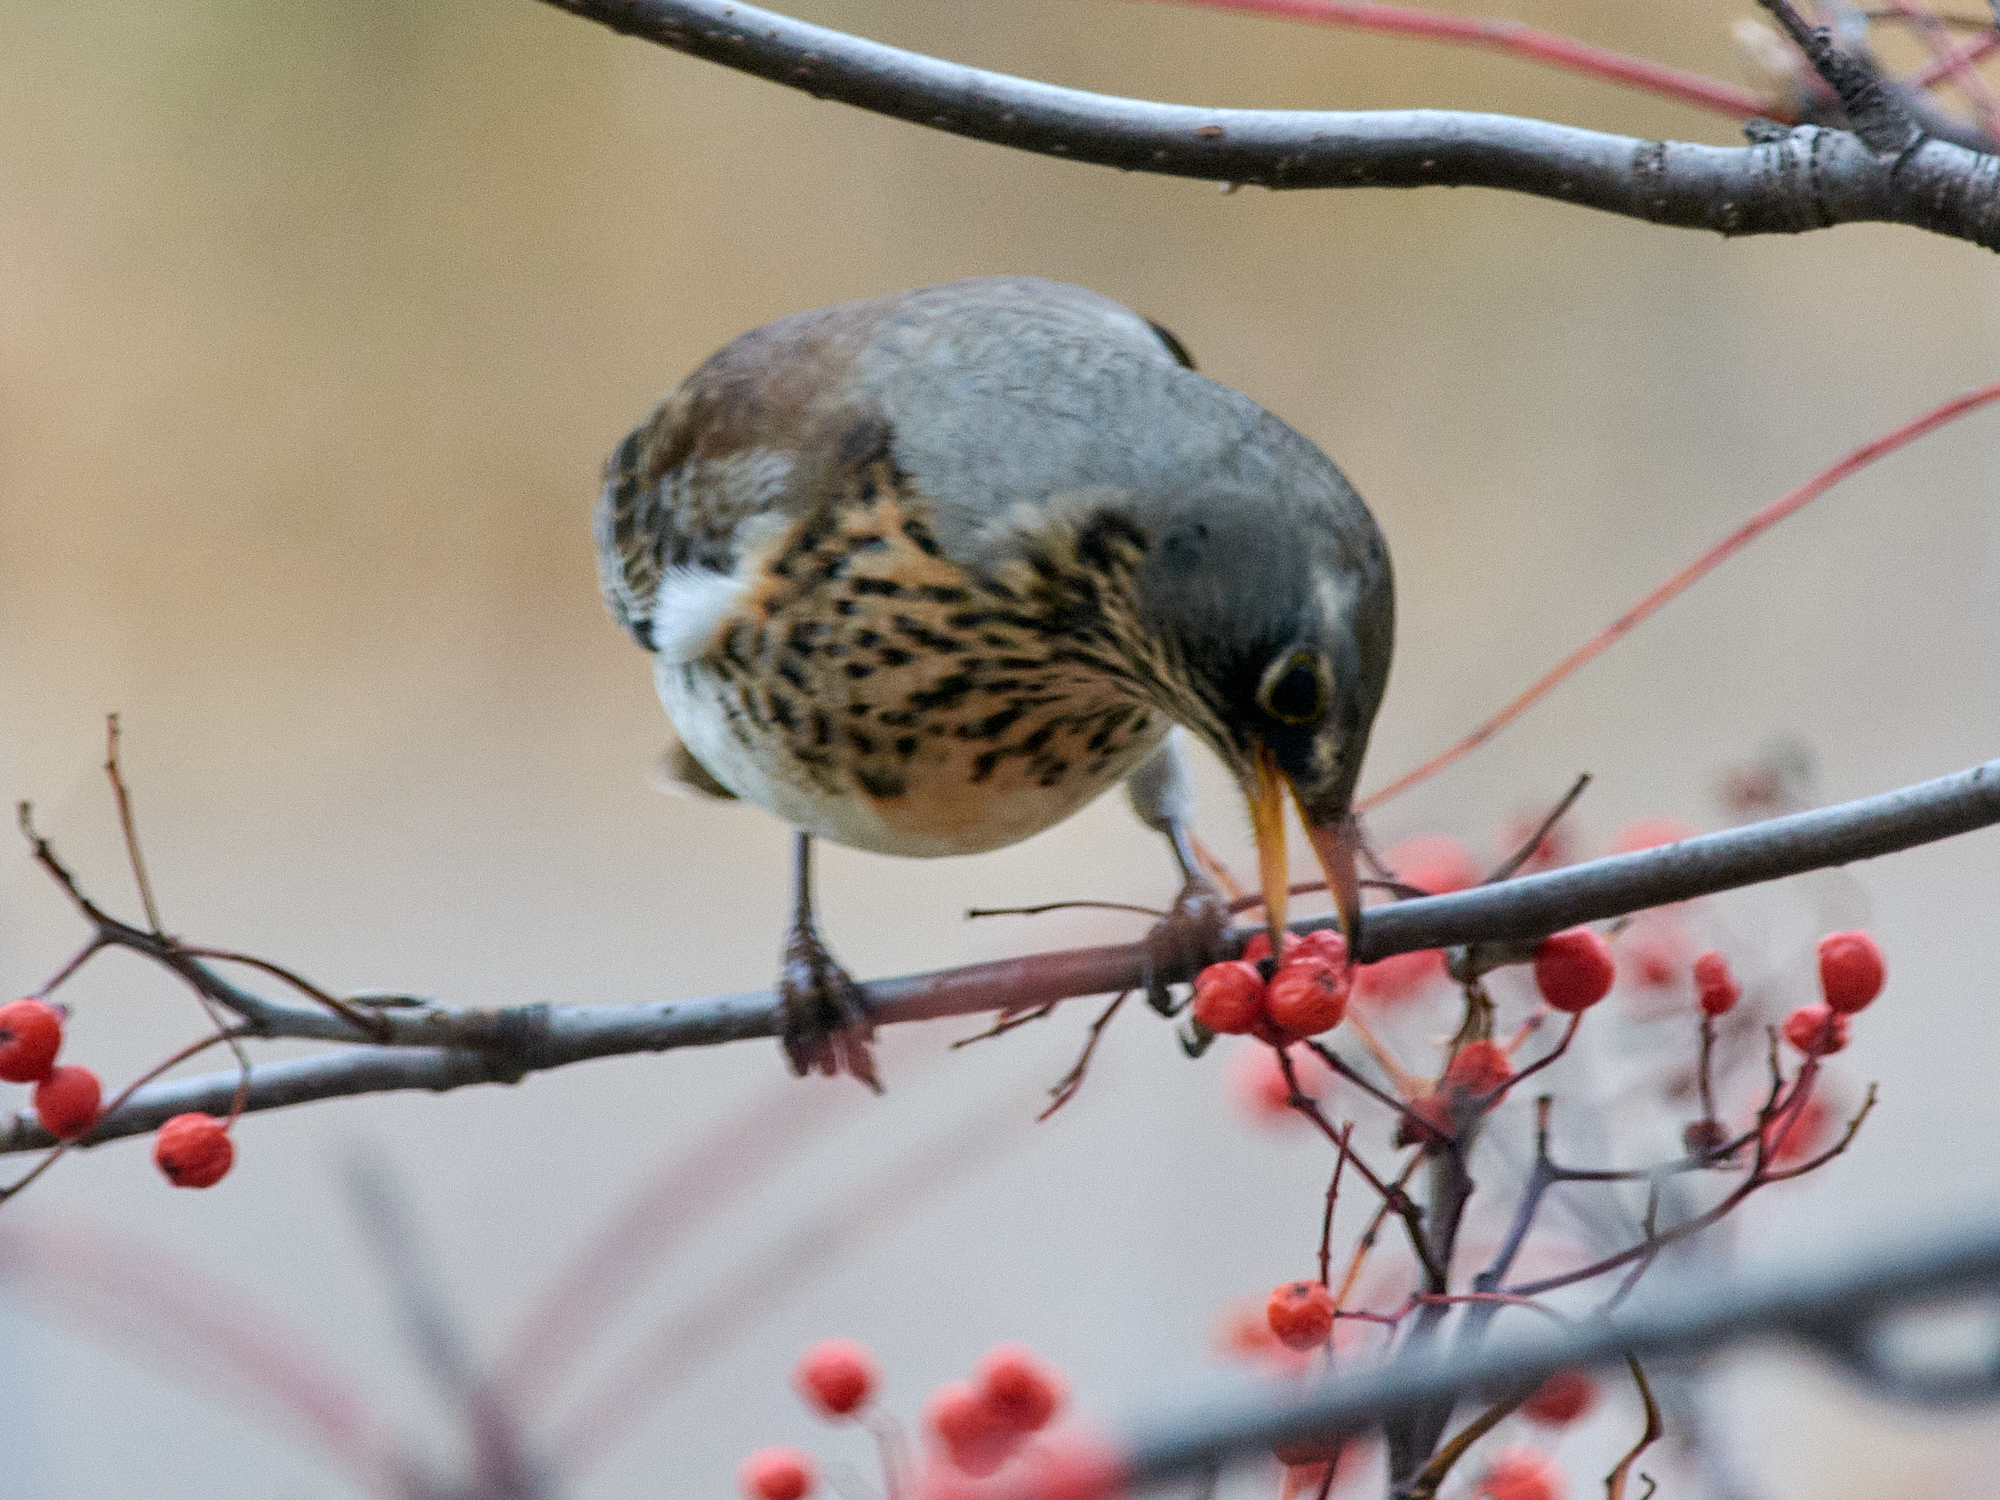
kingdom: Animalia
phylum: Chordata
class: Aves
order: Passeriformes
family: Turdidae
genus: Turdus
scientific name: Turdus pilaris
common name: Fieldfare
